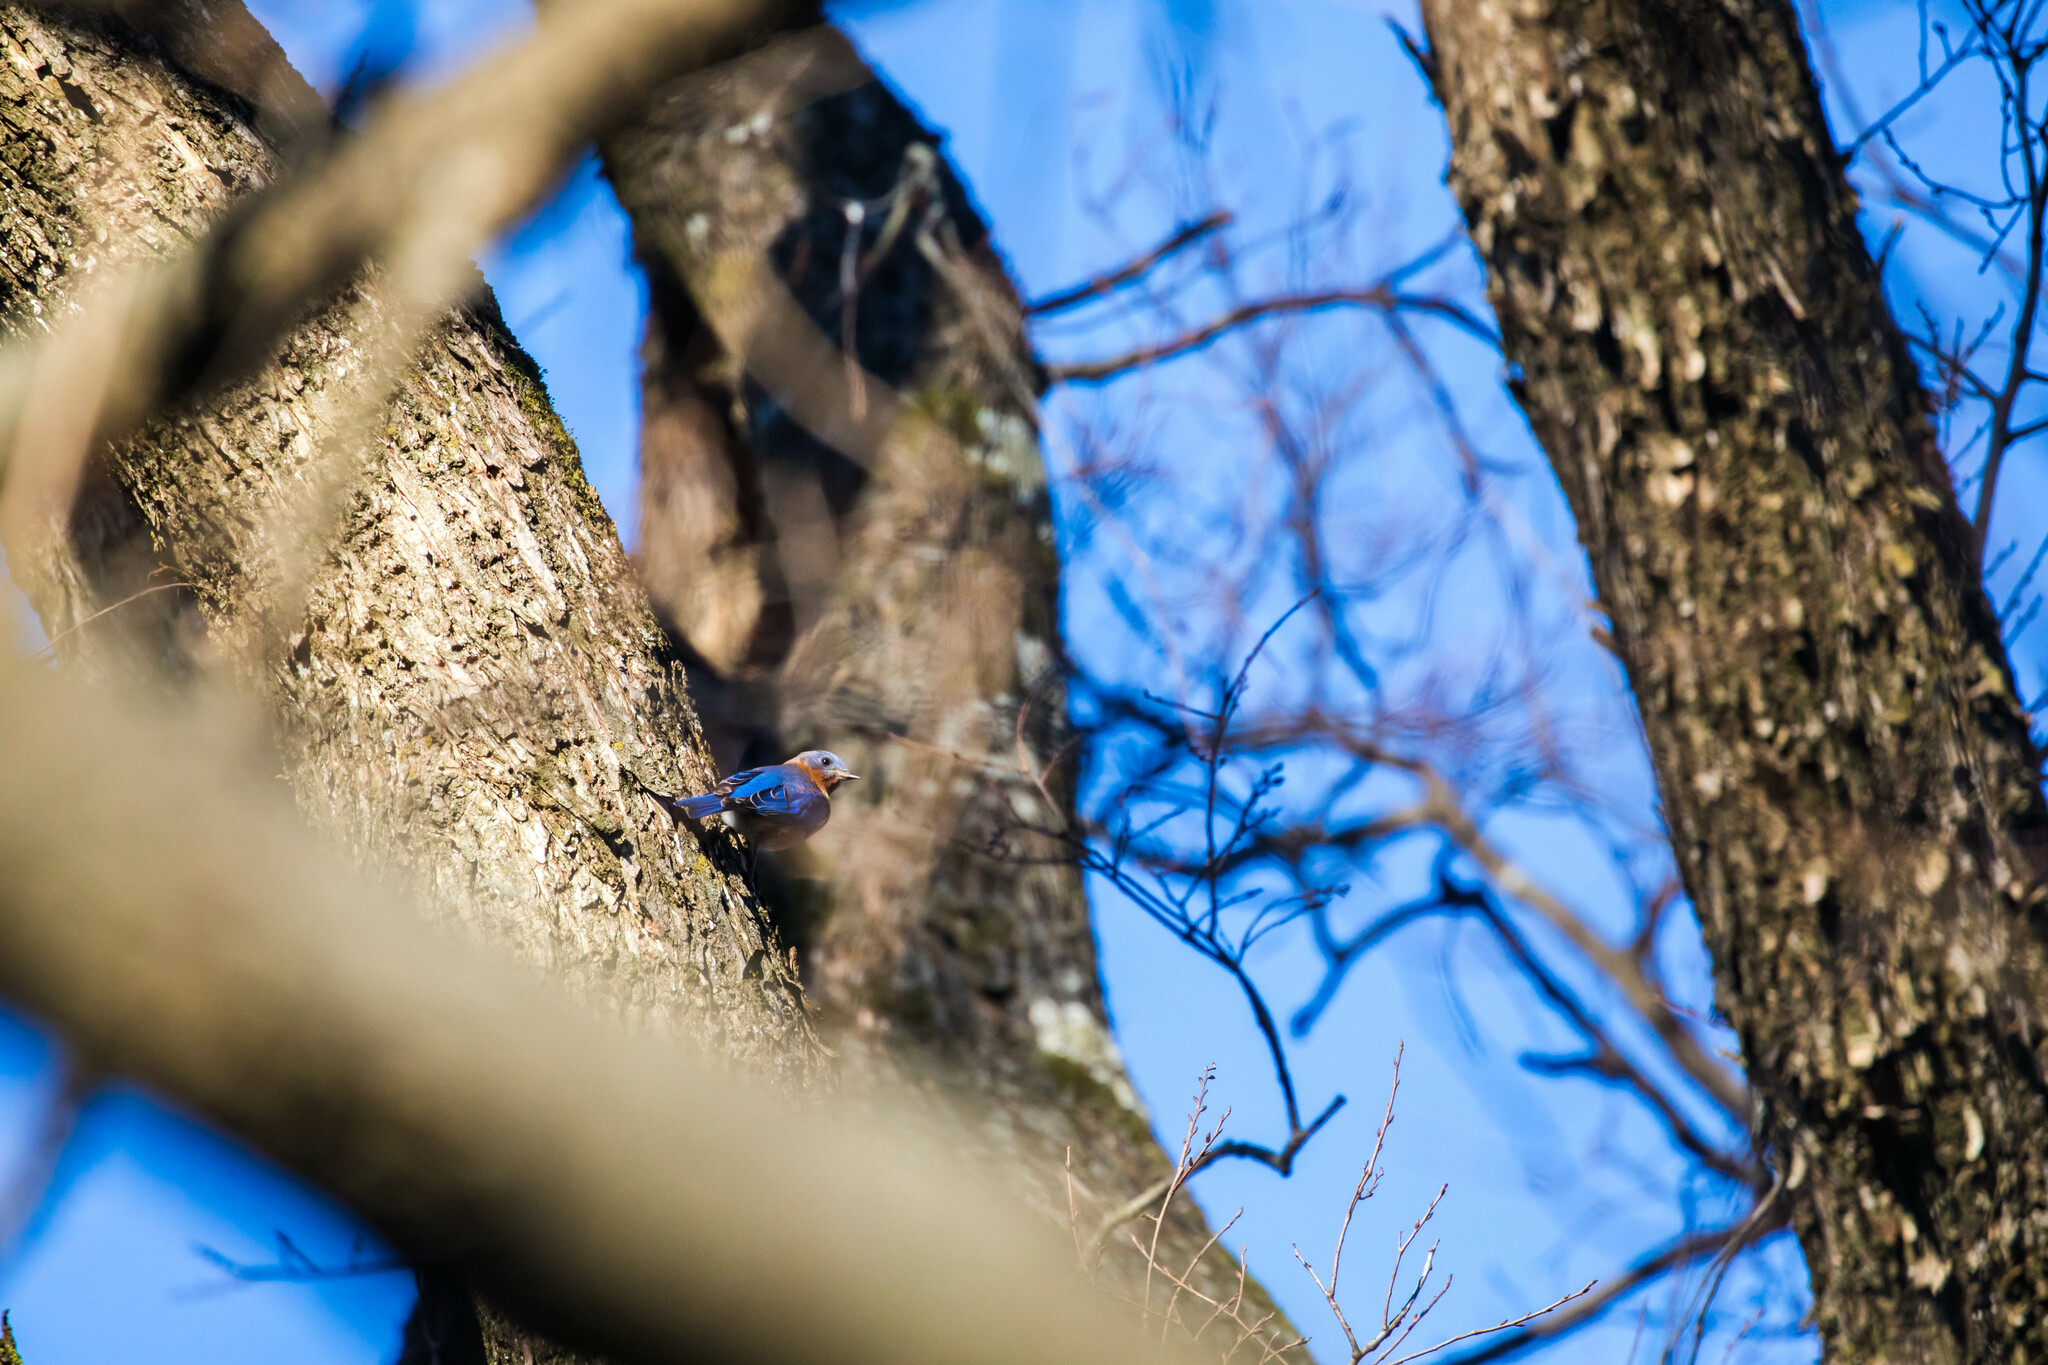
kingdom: Animalia
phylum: Chordata
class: Aves
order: Passeriformes
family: Turdidae
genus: Sialia
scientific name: Sialia sialis
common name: Eastern bluebird
